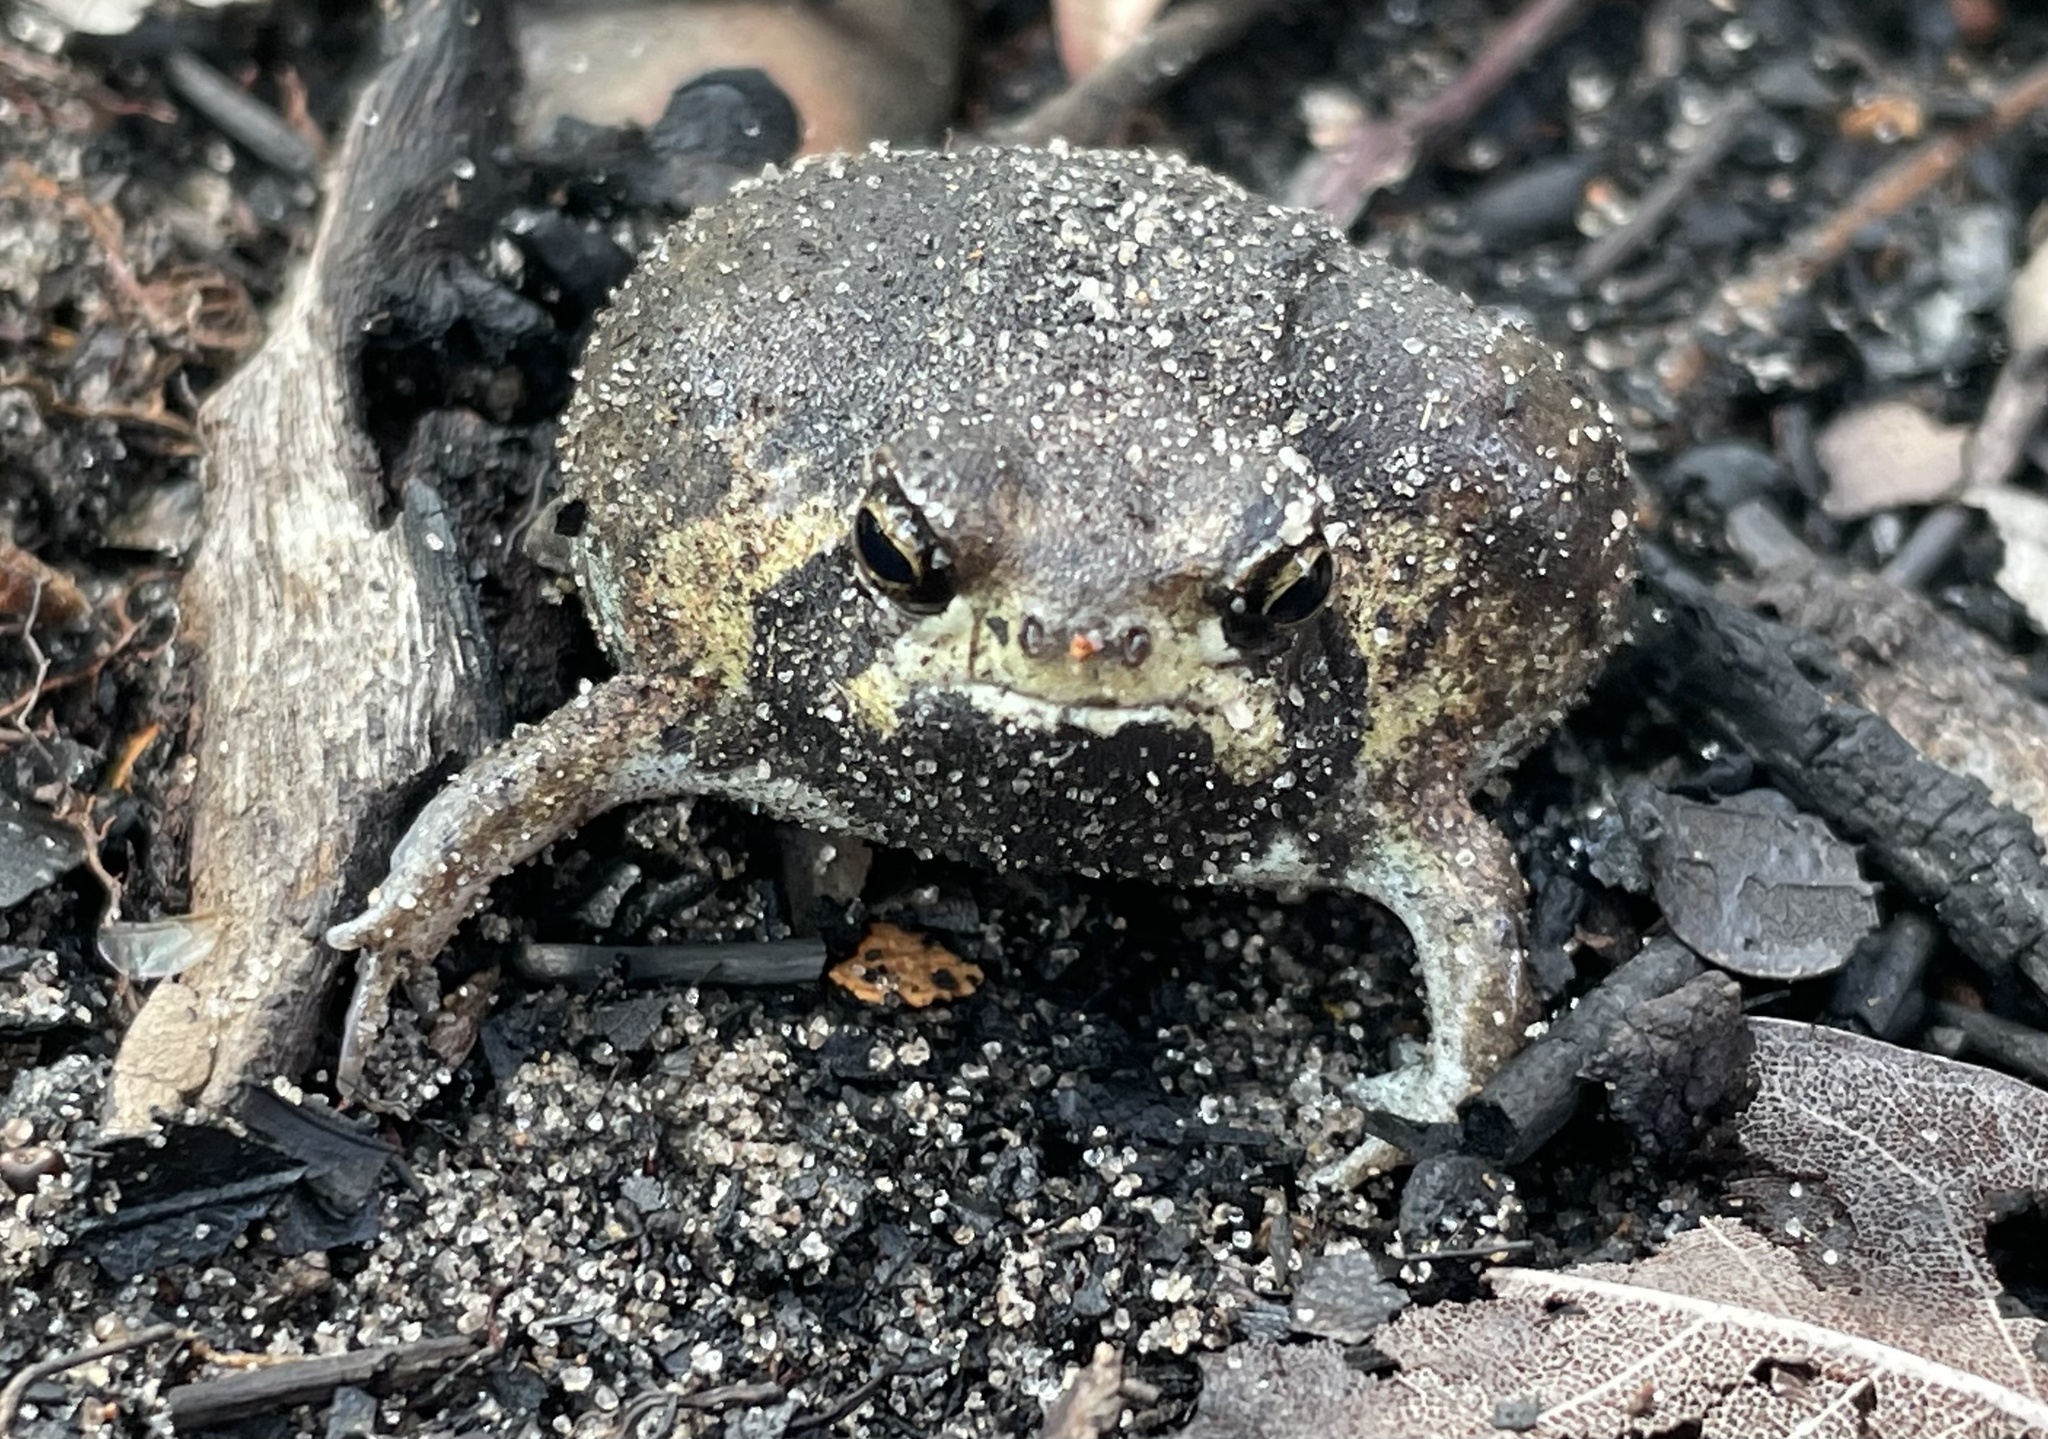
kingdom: Animalia
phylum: Chordata
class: Amphibia
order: Anura
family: Brevicipitidae
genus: Breviceps
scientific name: Breviceps ombelanonga
